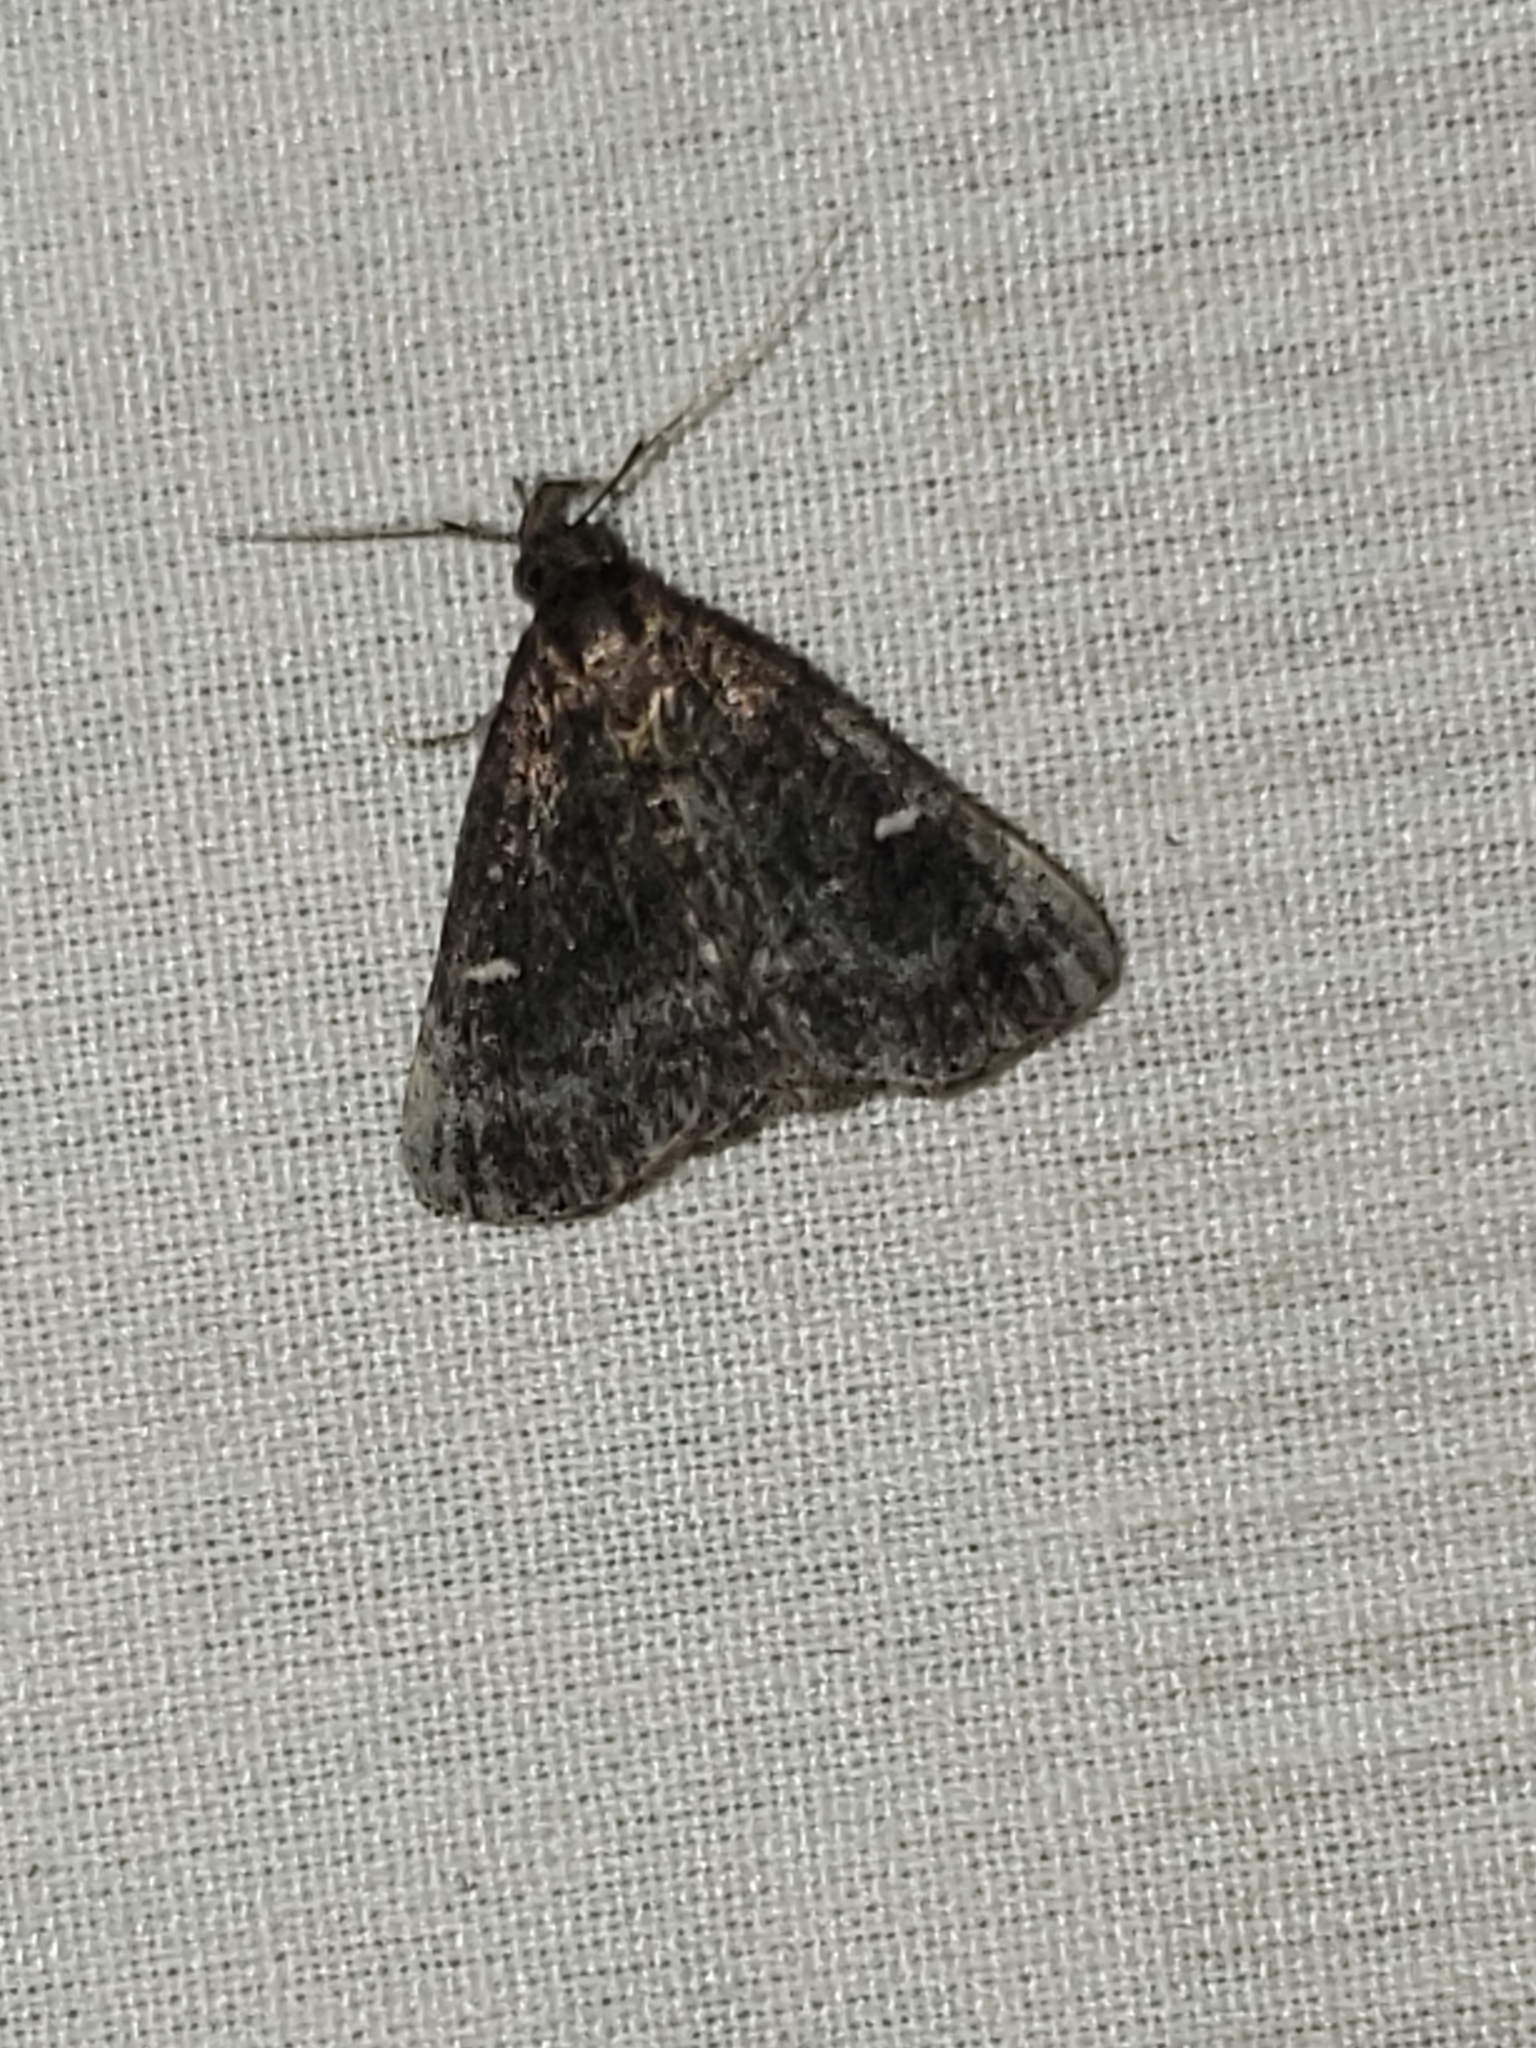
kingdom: Animalia
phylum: Arthropoda
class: Insecta
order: Lepidoptera
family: Erebidae
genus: Tetanolita
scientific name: Tetanolita mynesalis
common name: Smoky tetanolita moth
